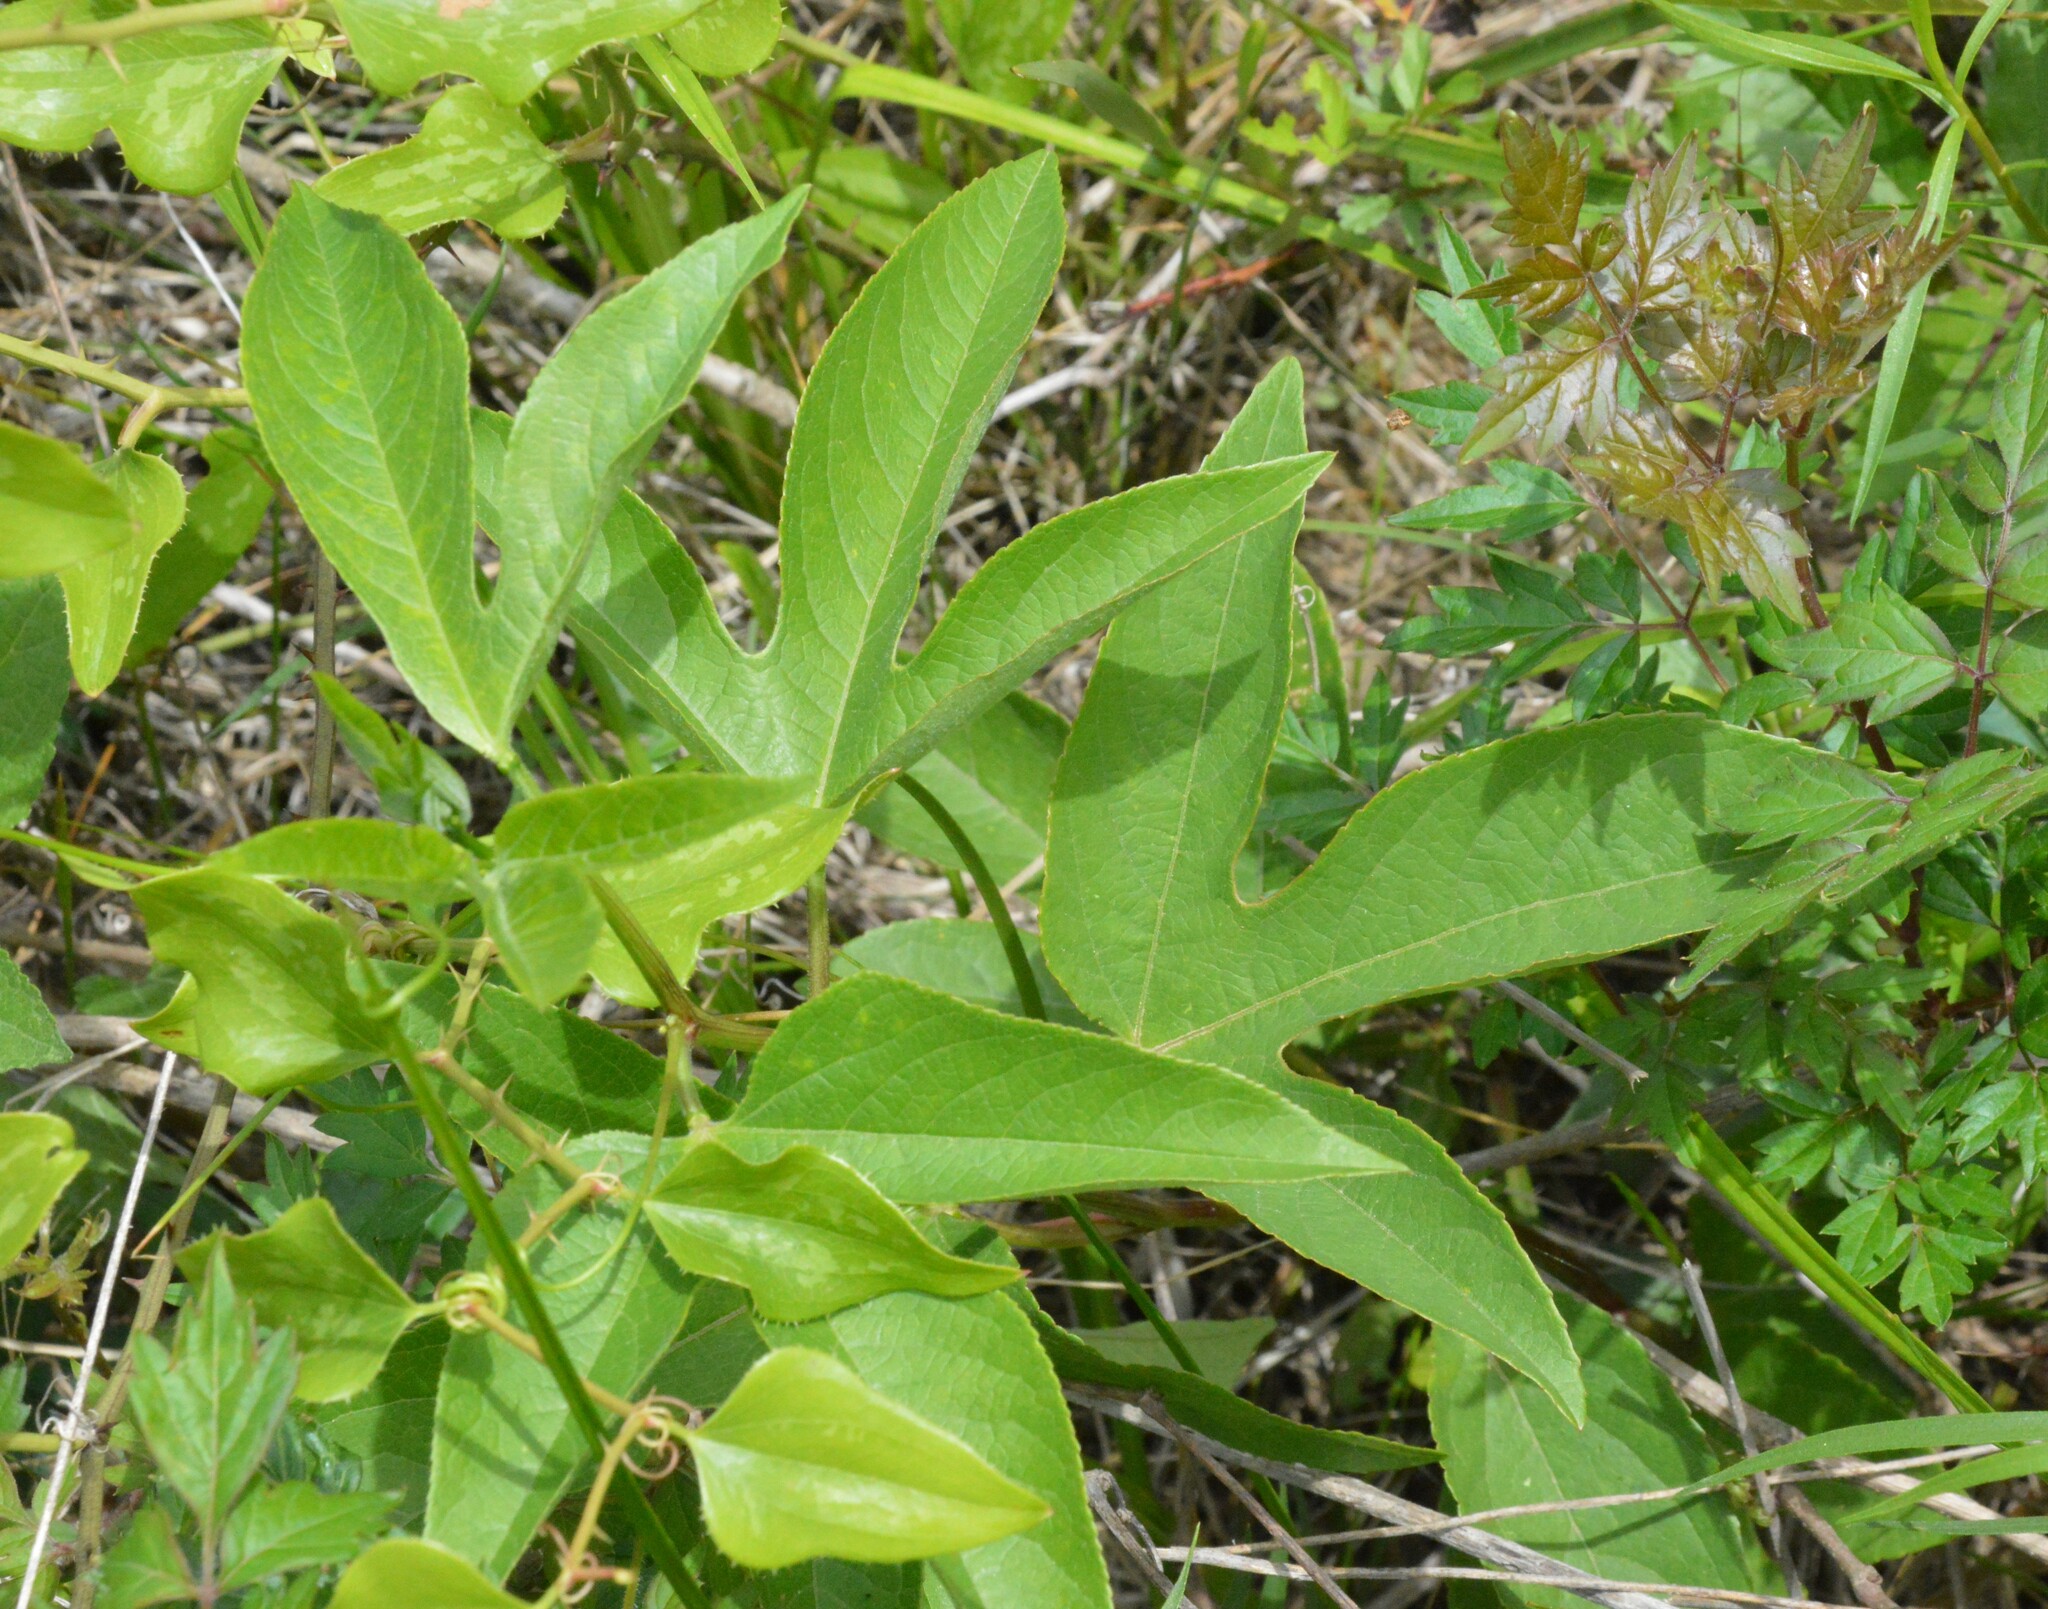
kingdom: Plantae
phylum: Tracheophyta
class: Magnoliopsida
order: Malpighiales
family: Passifloraceae
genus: Passiflora
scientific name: Passiflora incarnata
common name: Apricot-vine
